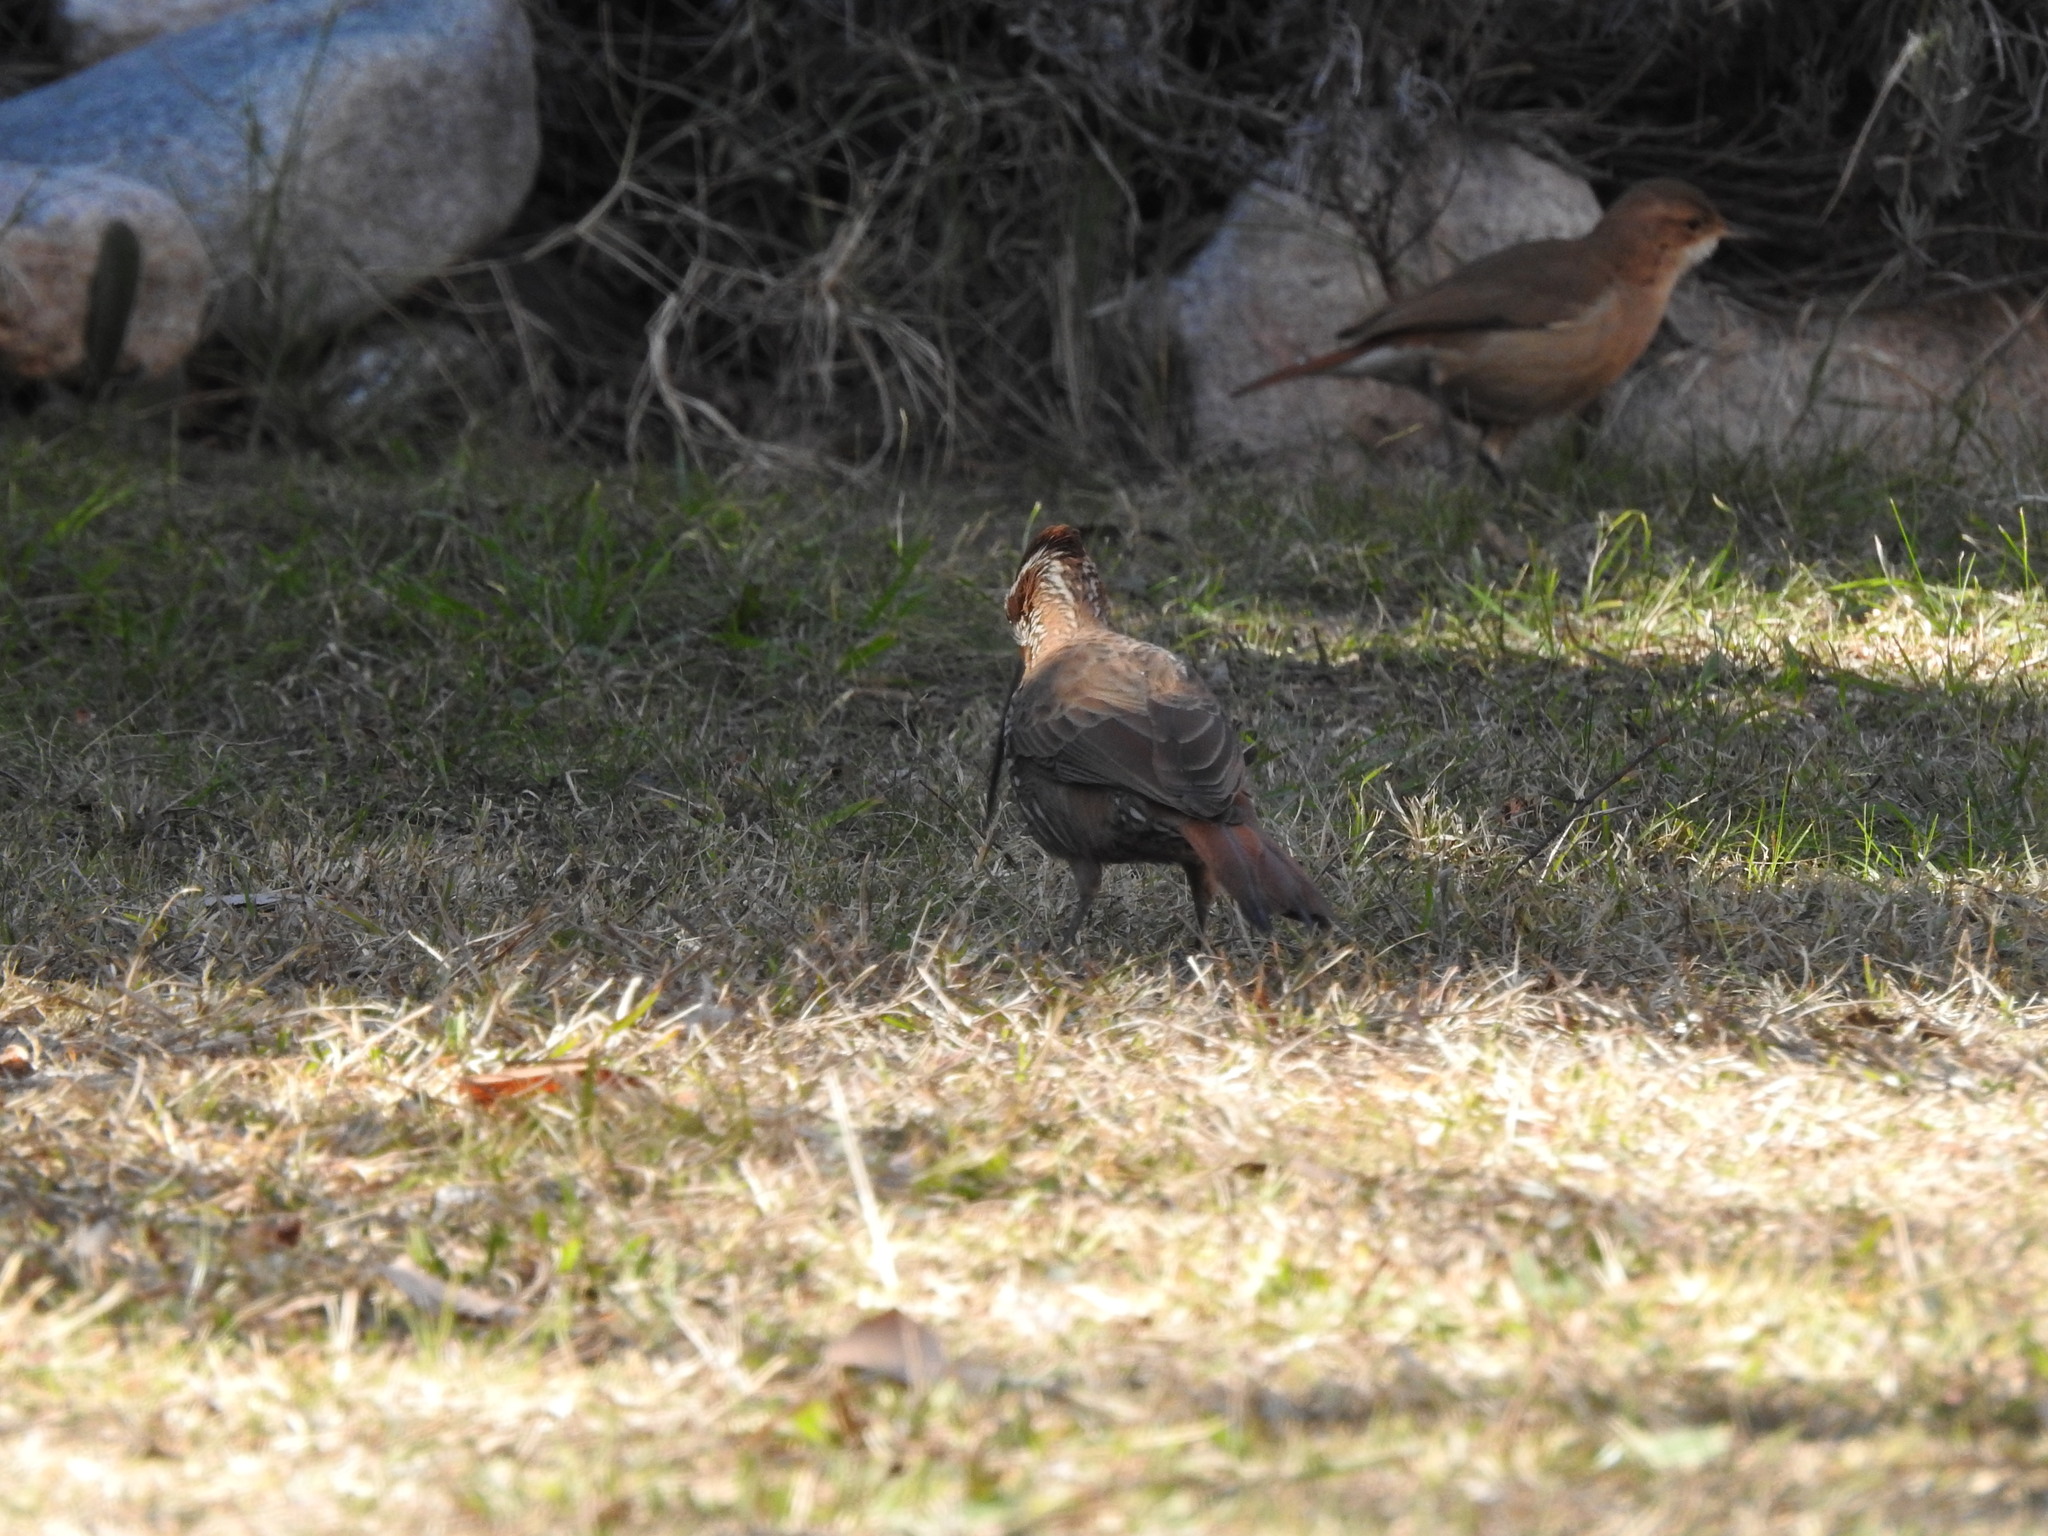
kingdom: Animalia
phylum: Chordata
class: Aves
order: Passeriformes
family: Furnariidae
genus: Drymornis
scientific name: Drymornis bridgesii
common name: Scimitar-billed woodcreeper
